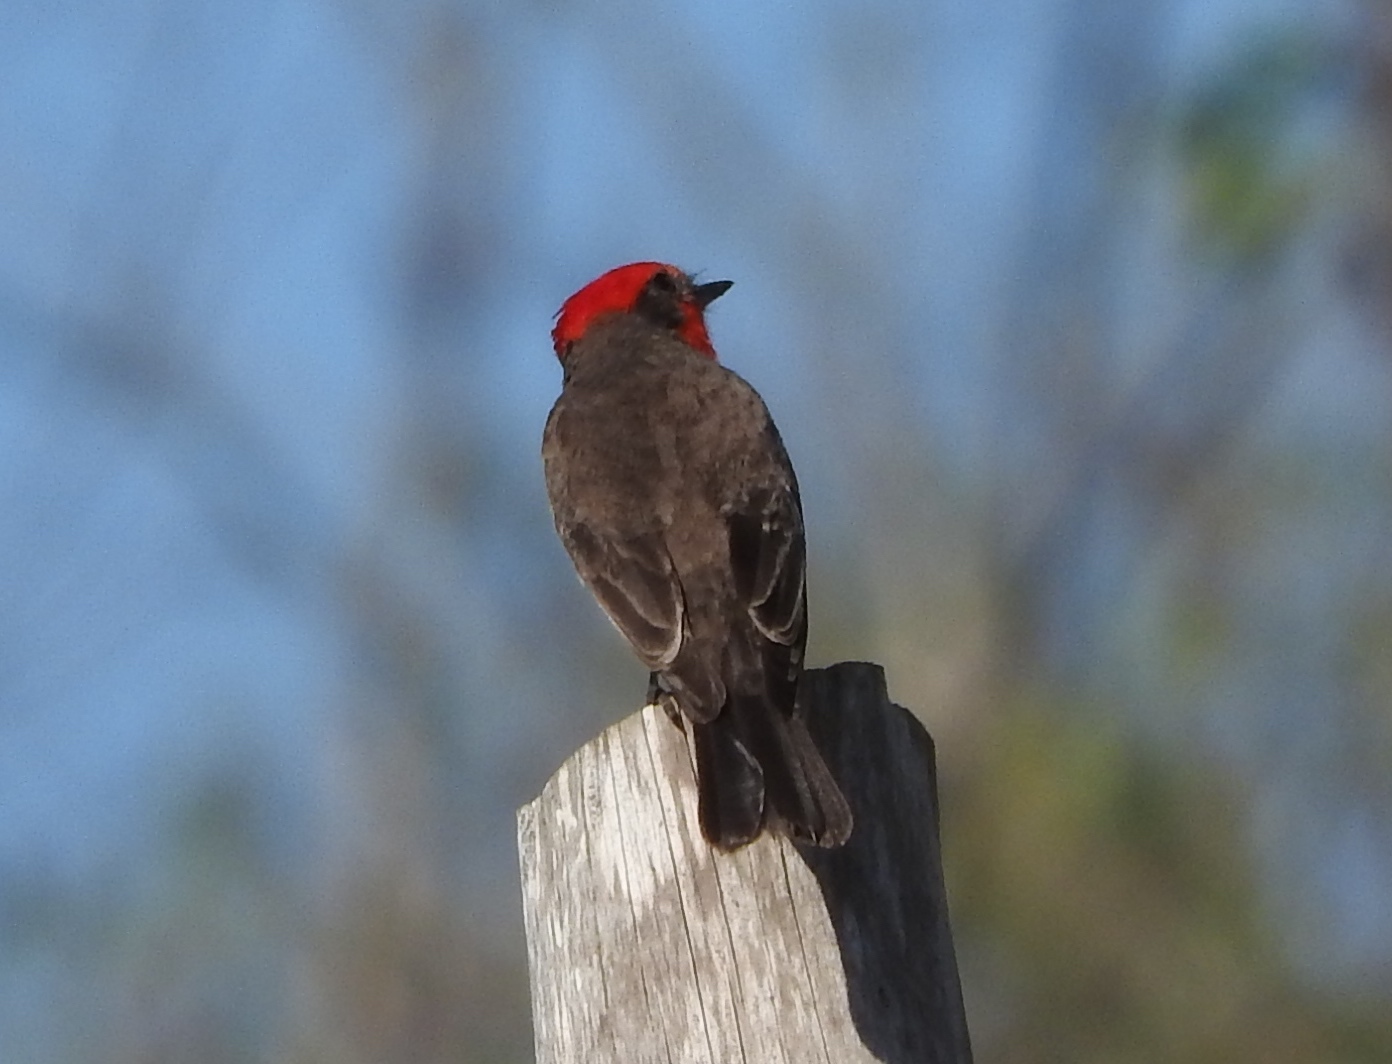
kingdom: Animalia
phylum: Chordata
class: Aves
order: Passeriformes
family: Tyrannidae
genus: Pyrocephalus
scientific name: Pyrocephalus rubinus
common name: Vermilion flycatcher
